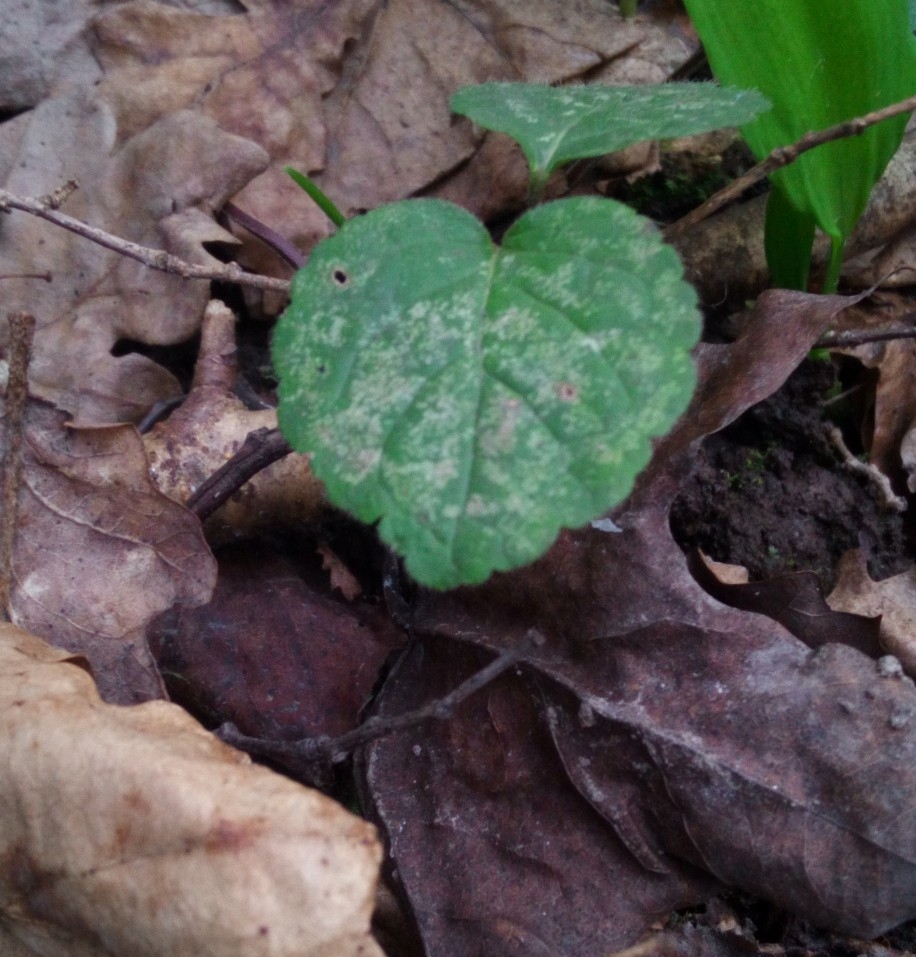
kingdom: Plantae
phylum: Tracheophyta
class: Magnoliopsida
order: Lamiales
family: Lamiaceae
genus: Lamium
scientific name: Lamium galeobdolon
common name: Yellow archangel
